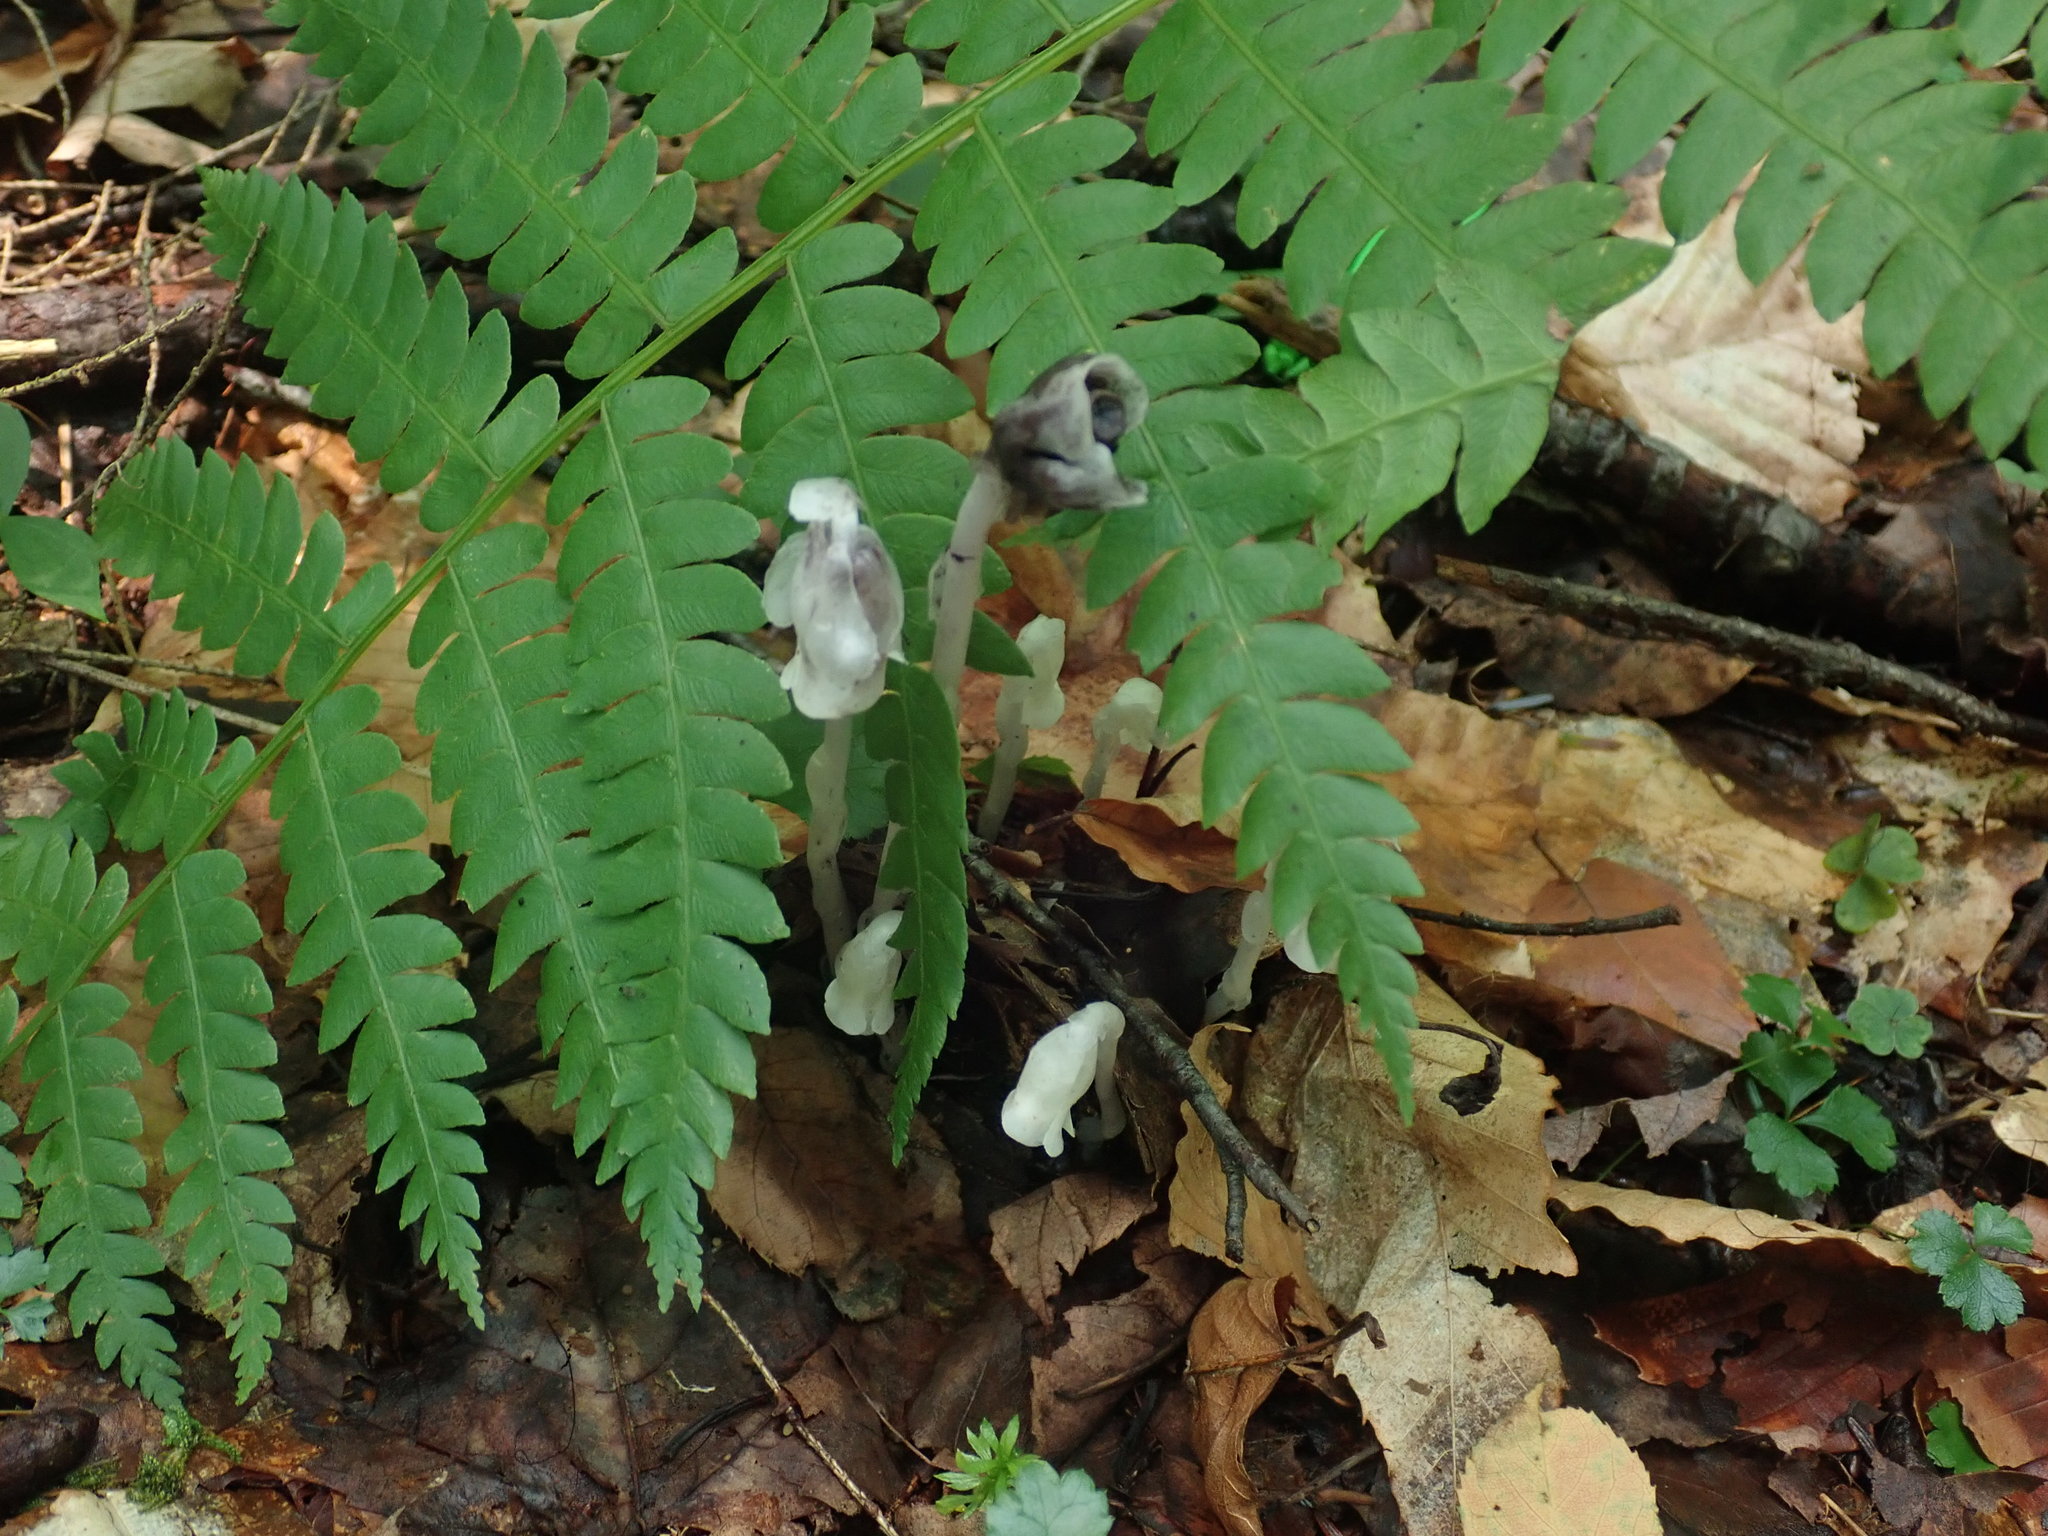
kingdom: Plantae
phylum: Tracheophyta
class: Magnoliopsida
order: Ericales
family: Ericaceae
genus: Monotropa
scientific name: Monotropa uniflora
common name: Convulsion root
